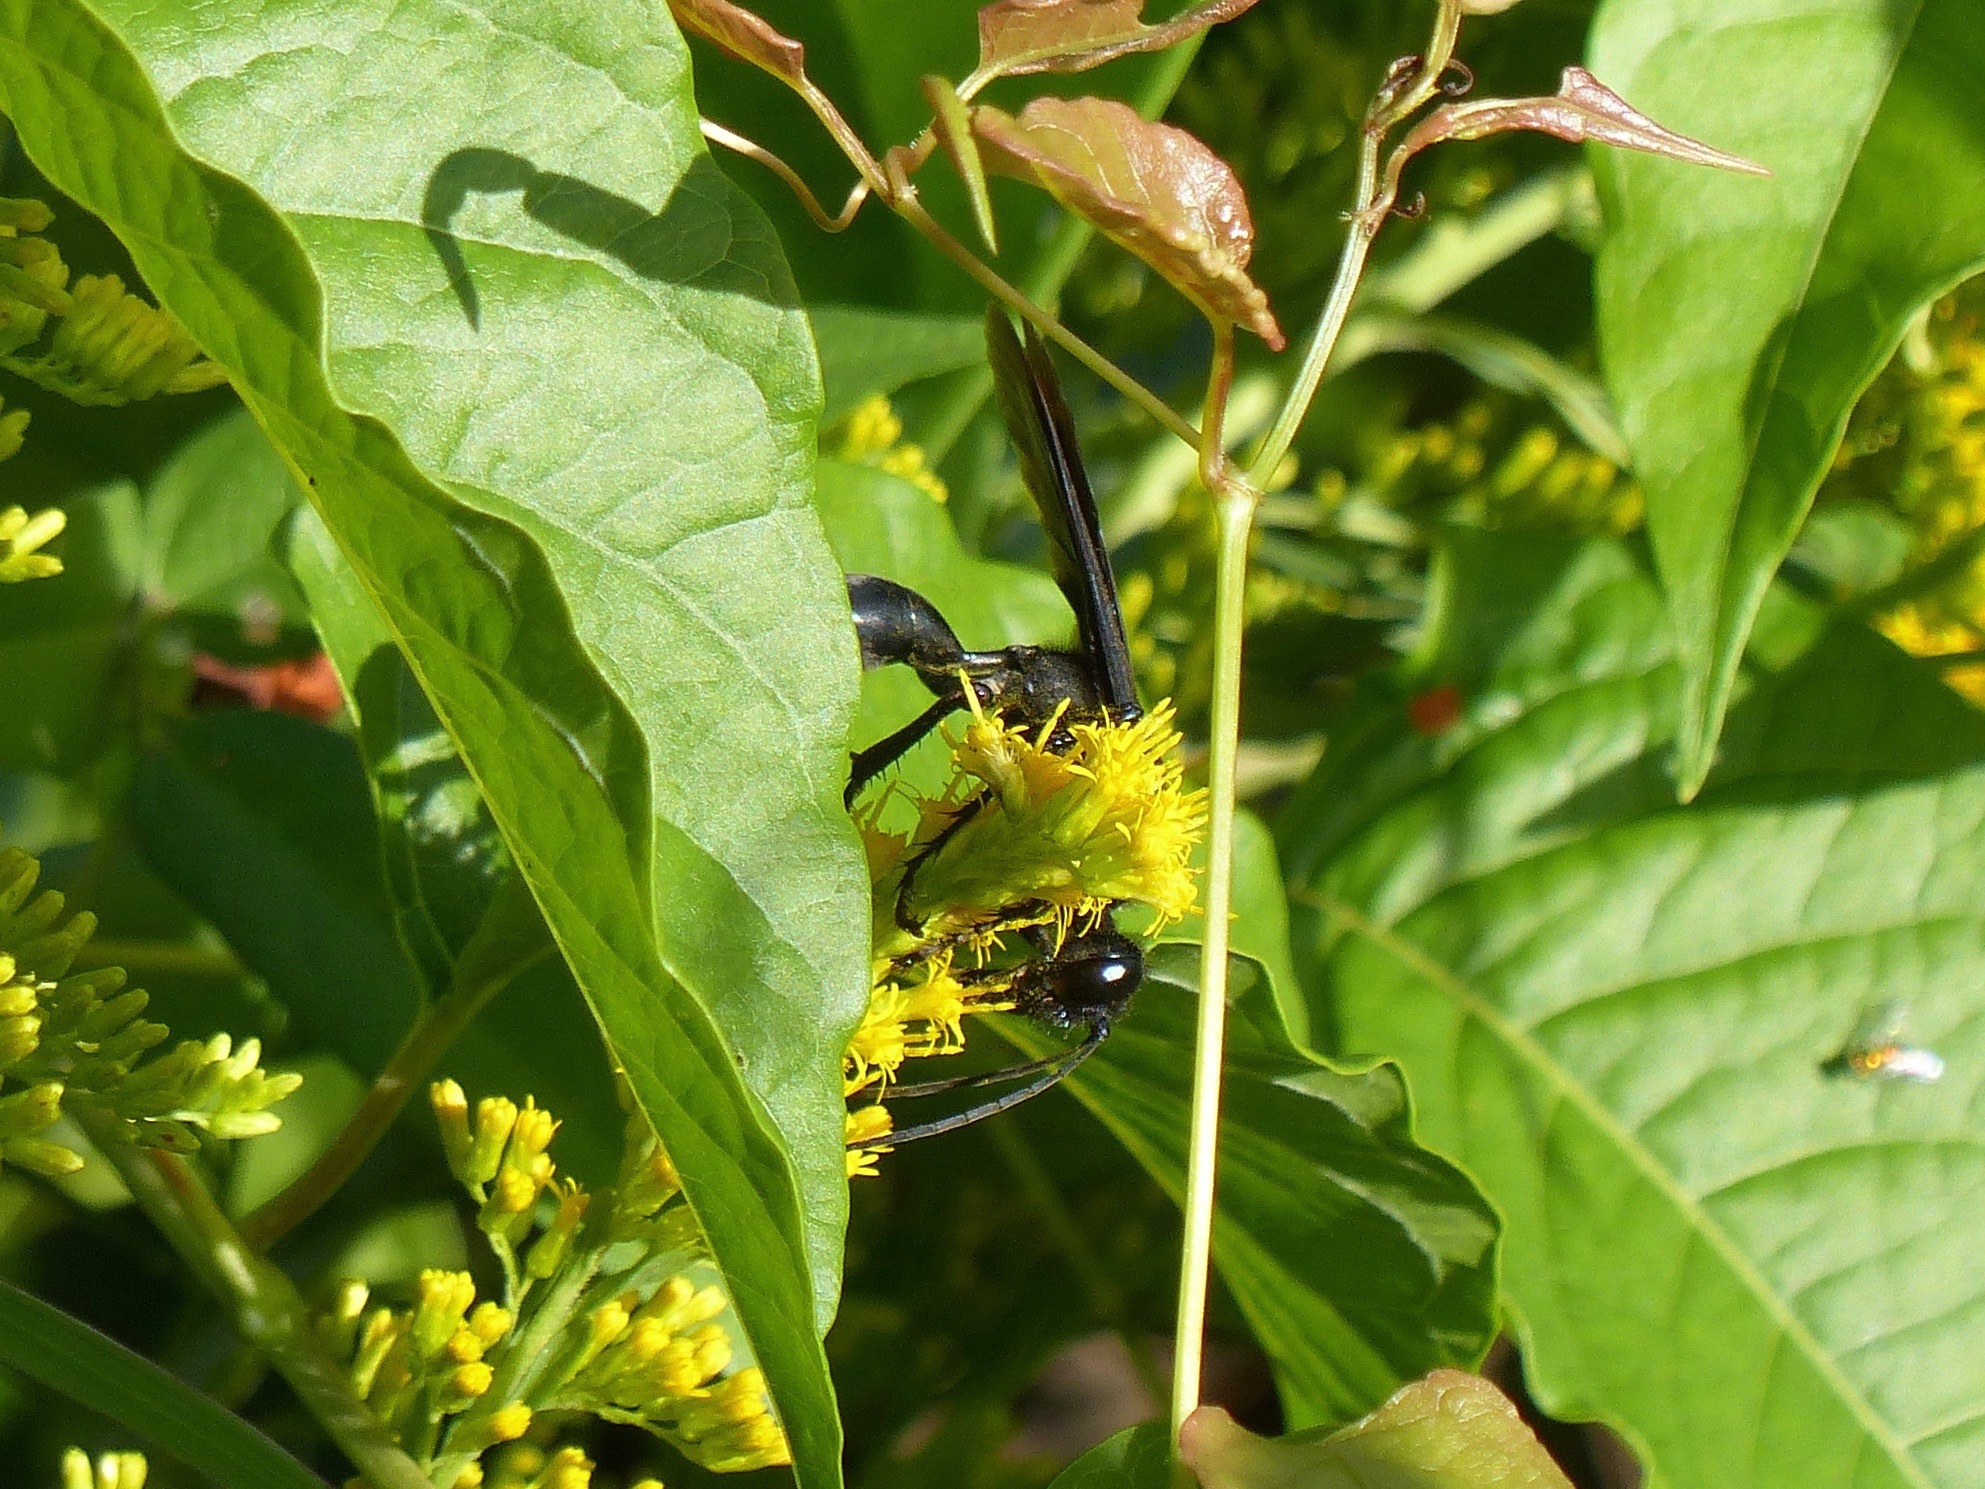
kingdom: Animalia
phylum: Arthropoda
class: Insecta
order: Hymenoptera
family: Sphecidae
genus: Sphex
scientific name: Sphex pensylvanicus
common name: Great black digger wasp
